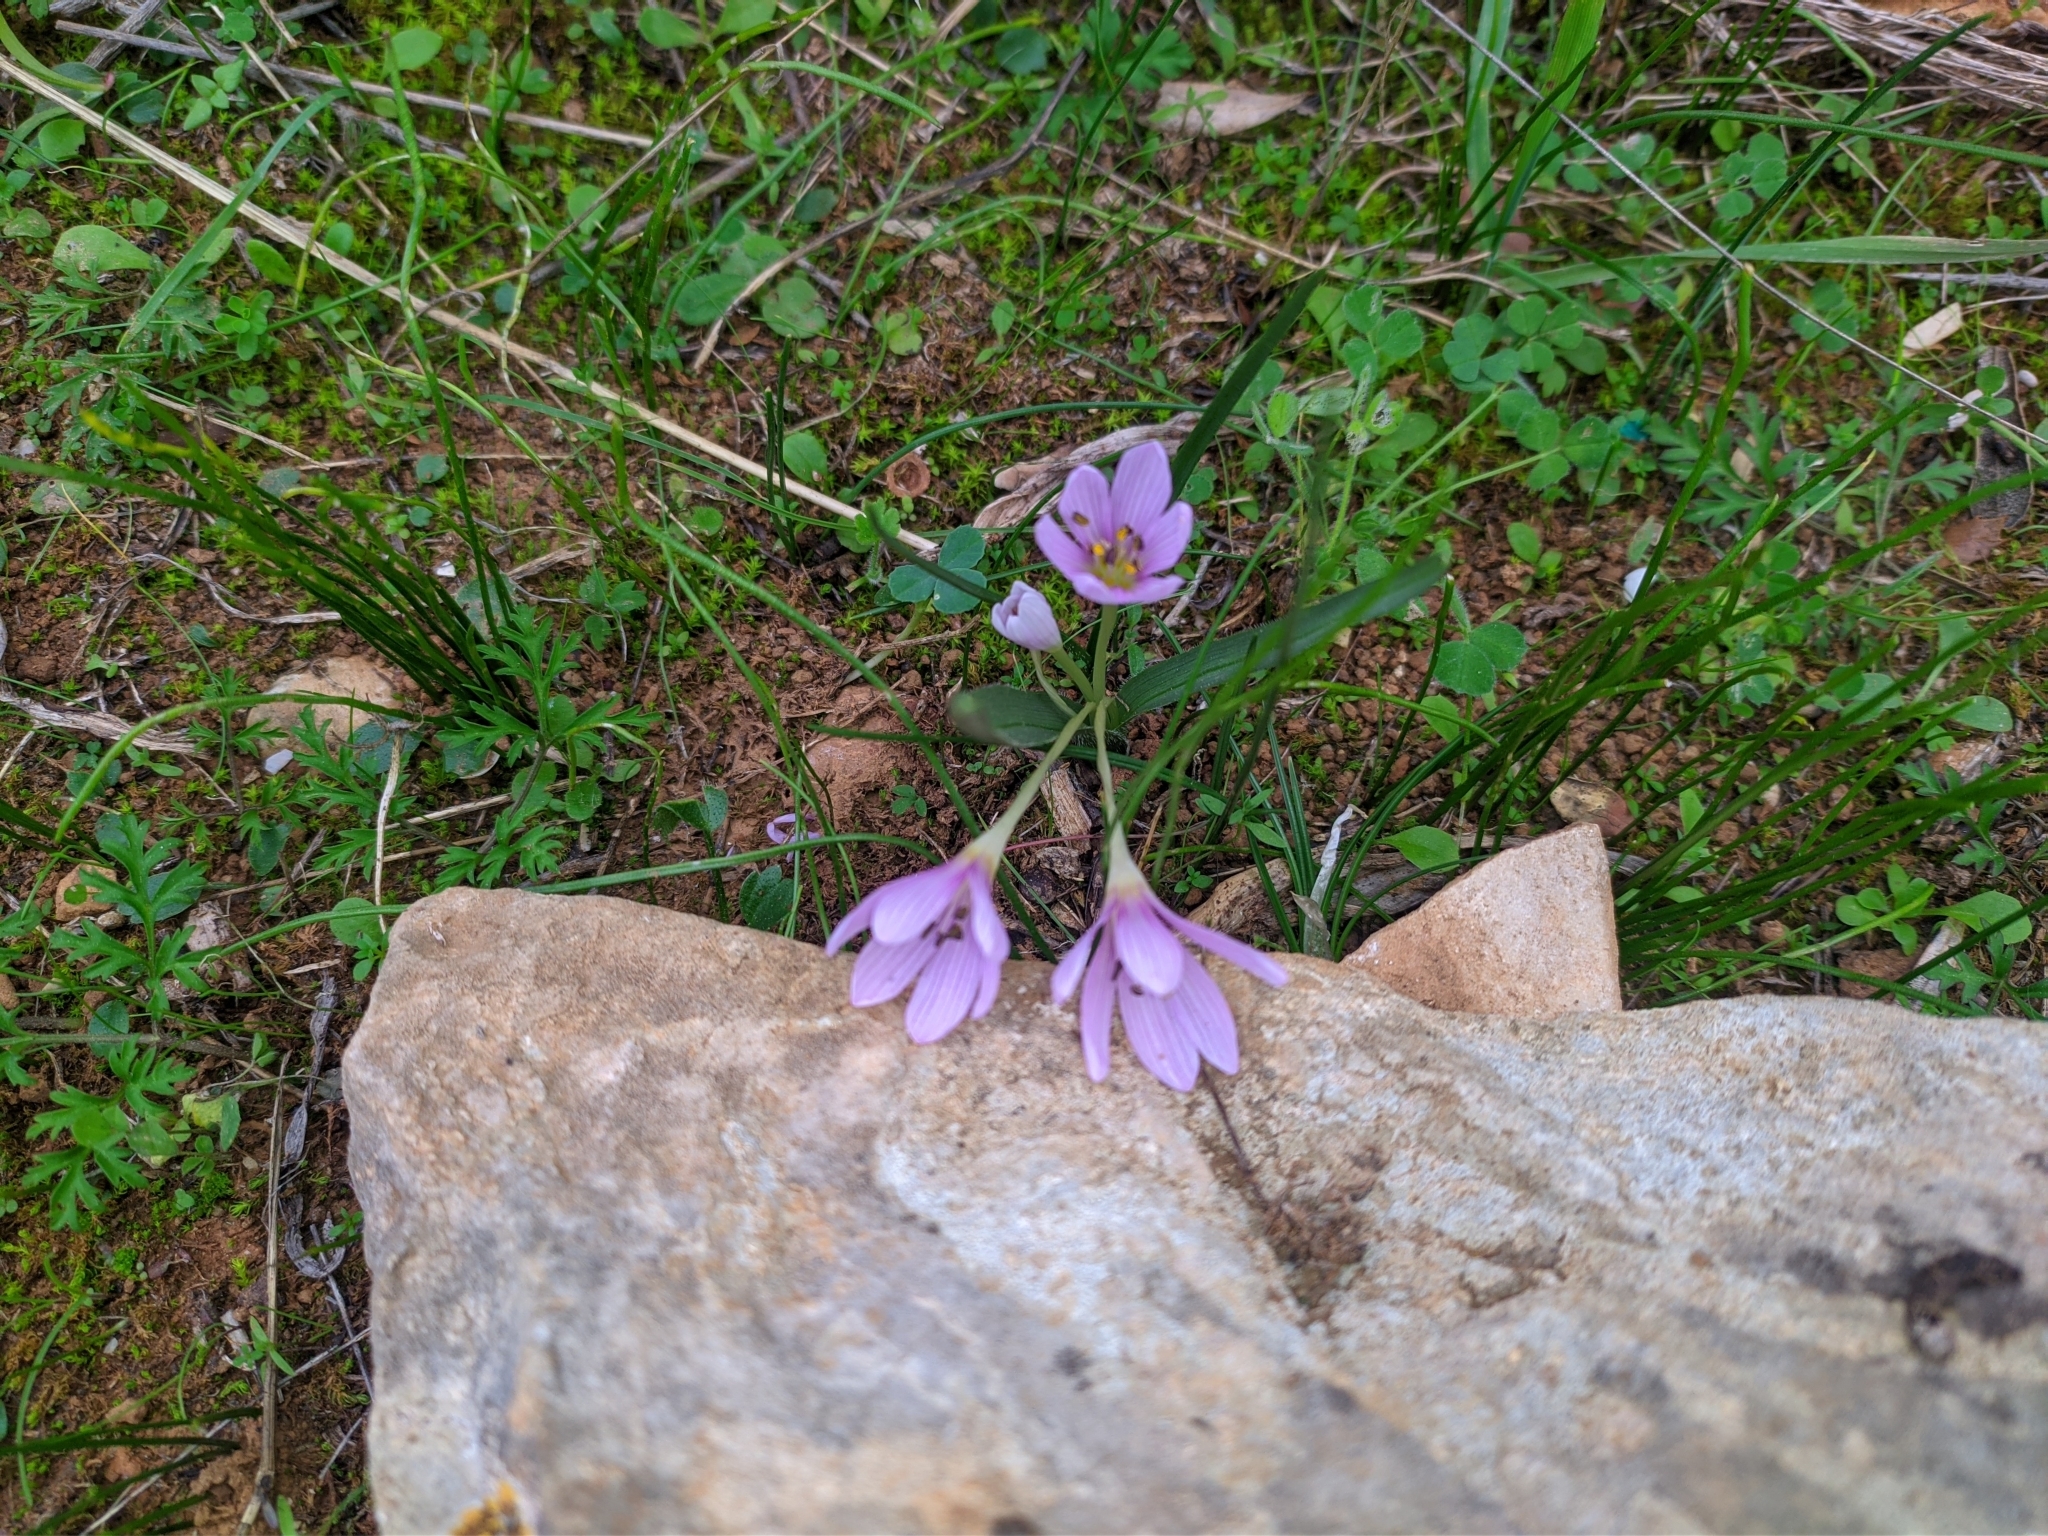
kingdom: Plantae
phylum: Tracheophyta
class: Liliopsida
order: Liliales
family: Colchicaceae
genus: Colchicum
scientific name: Colchicum cupanii
